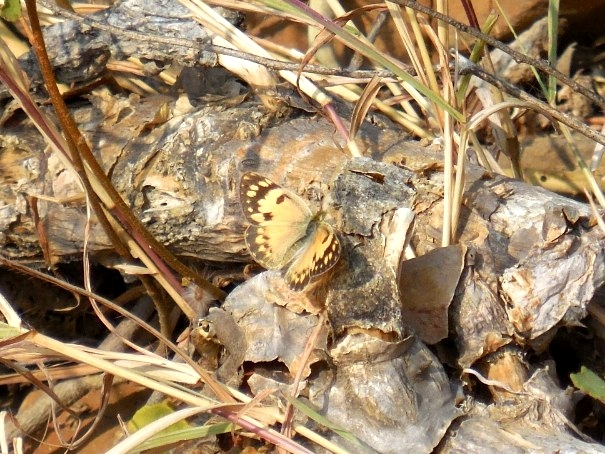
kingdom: Animalia
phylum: Arthropoda
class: Insecta
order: Lepidoptera
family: Pieridae
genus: Colotis
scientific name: Colotis amata
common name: Small salmon arab
